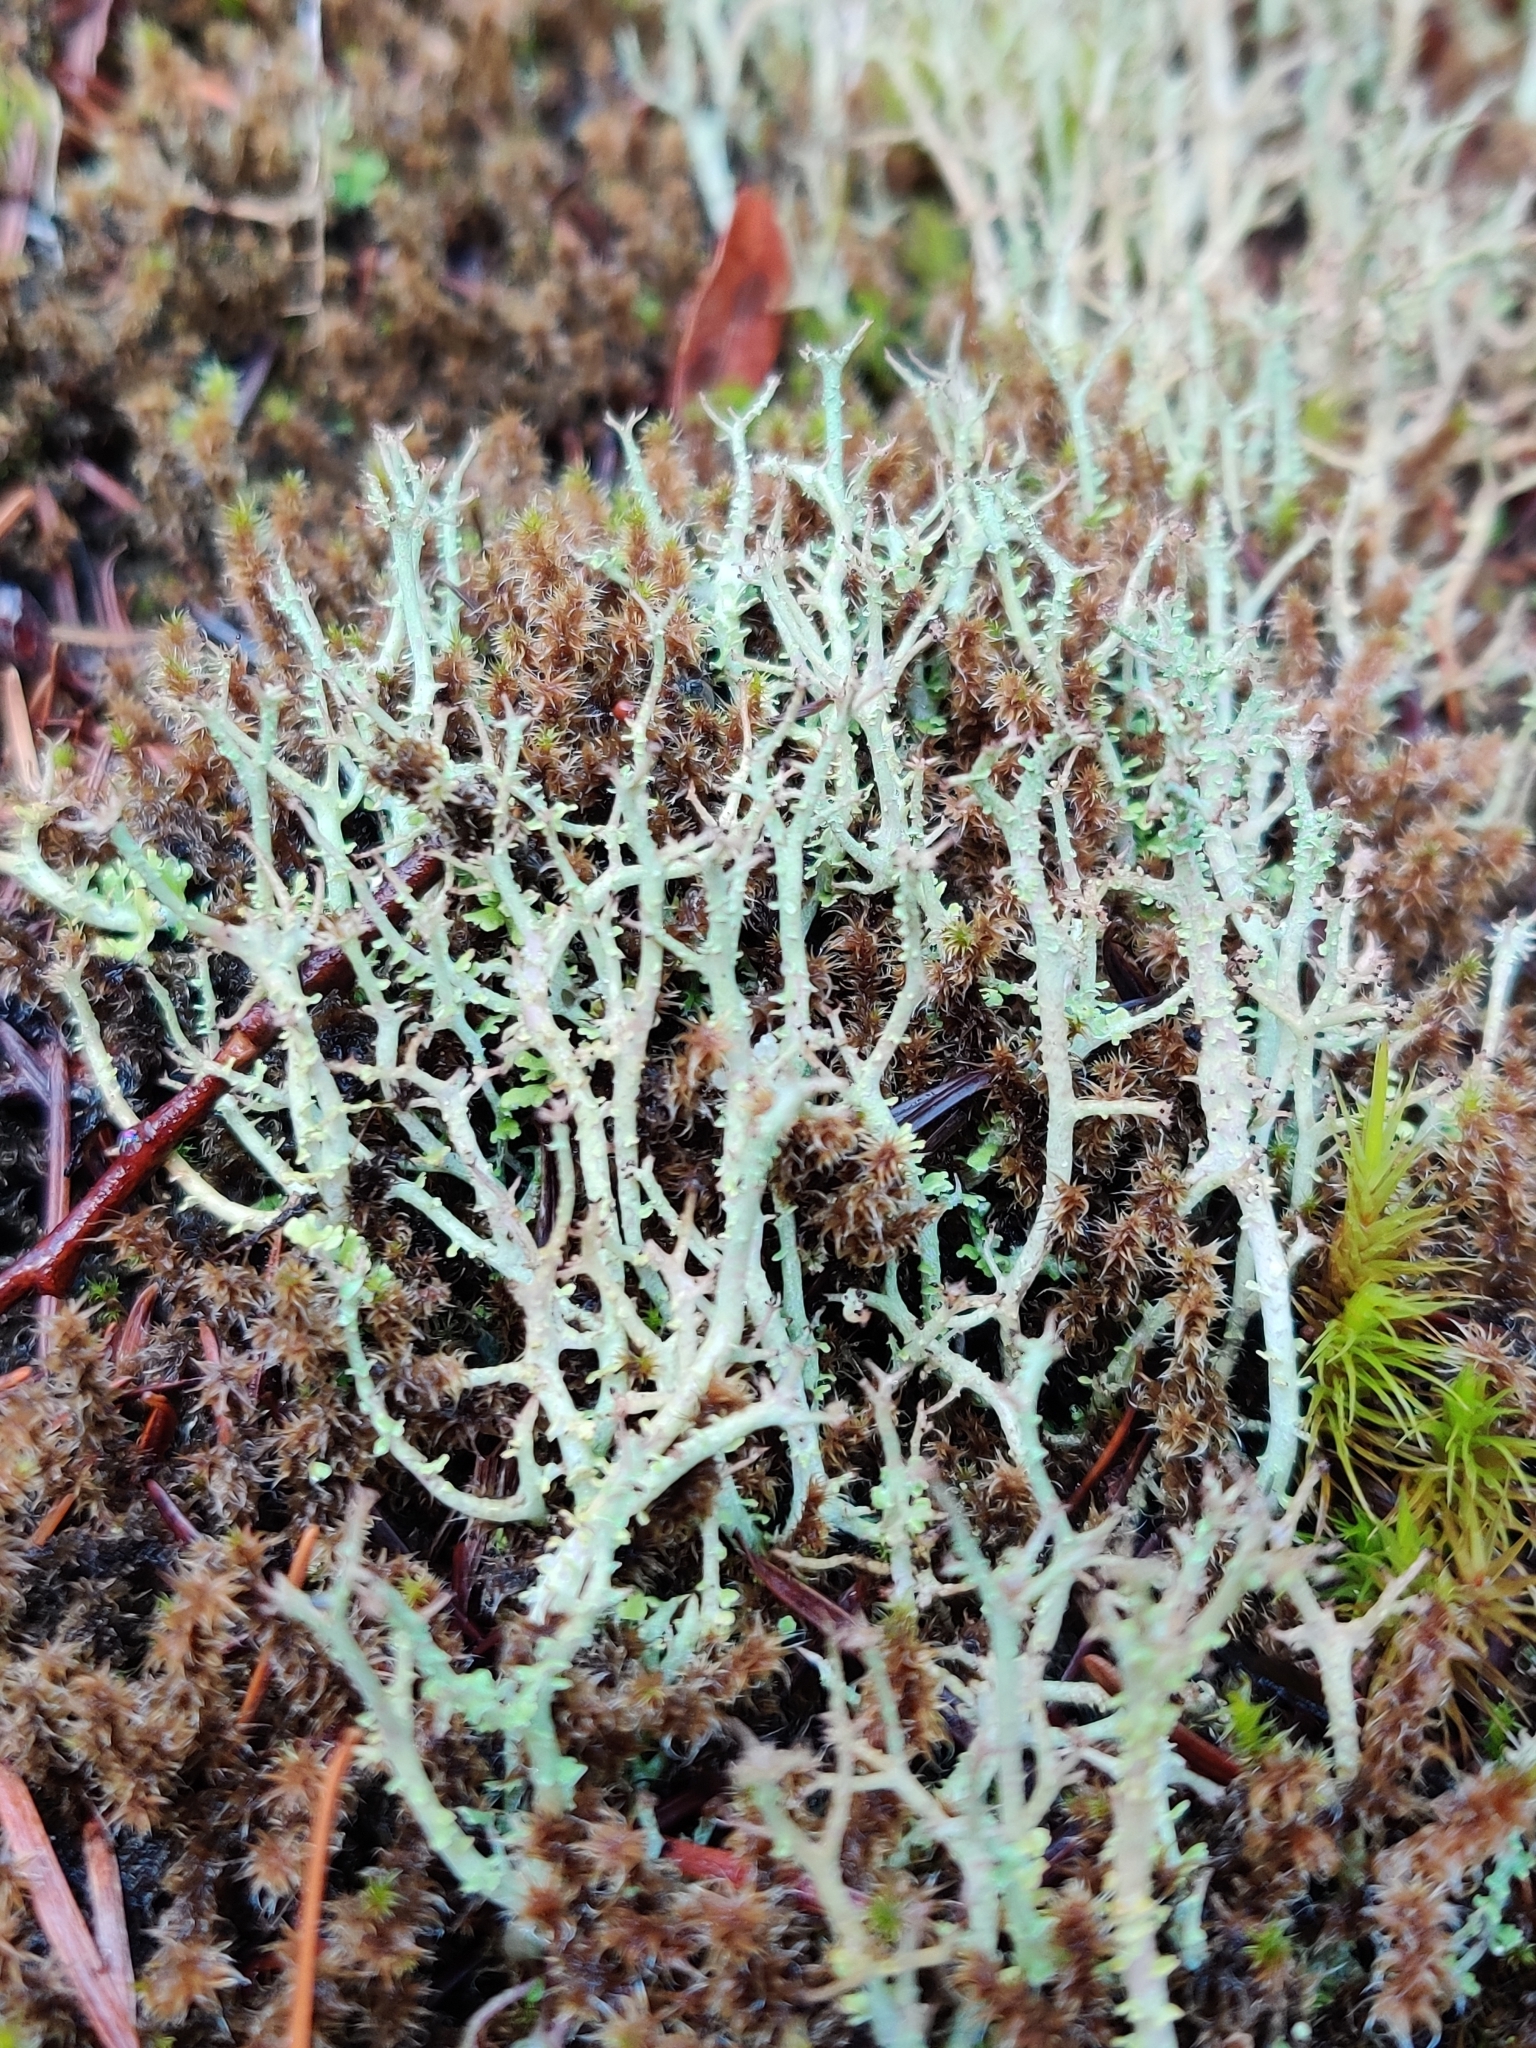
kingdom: Fungi
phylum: Ascomycota
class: Lecanoromycetes
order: Lecanorales
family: Cladoniaceae
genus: Cladonia
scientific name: Cladonia furcata
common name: Many-forked cladonia
